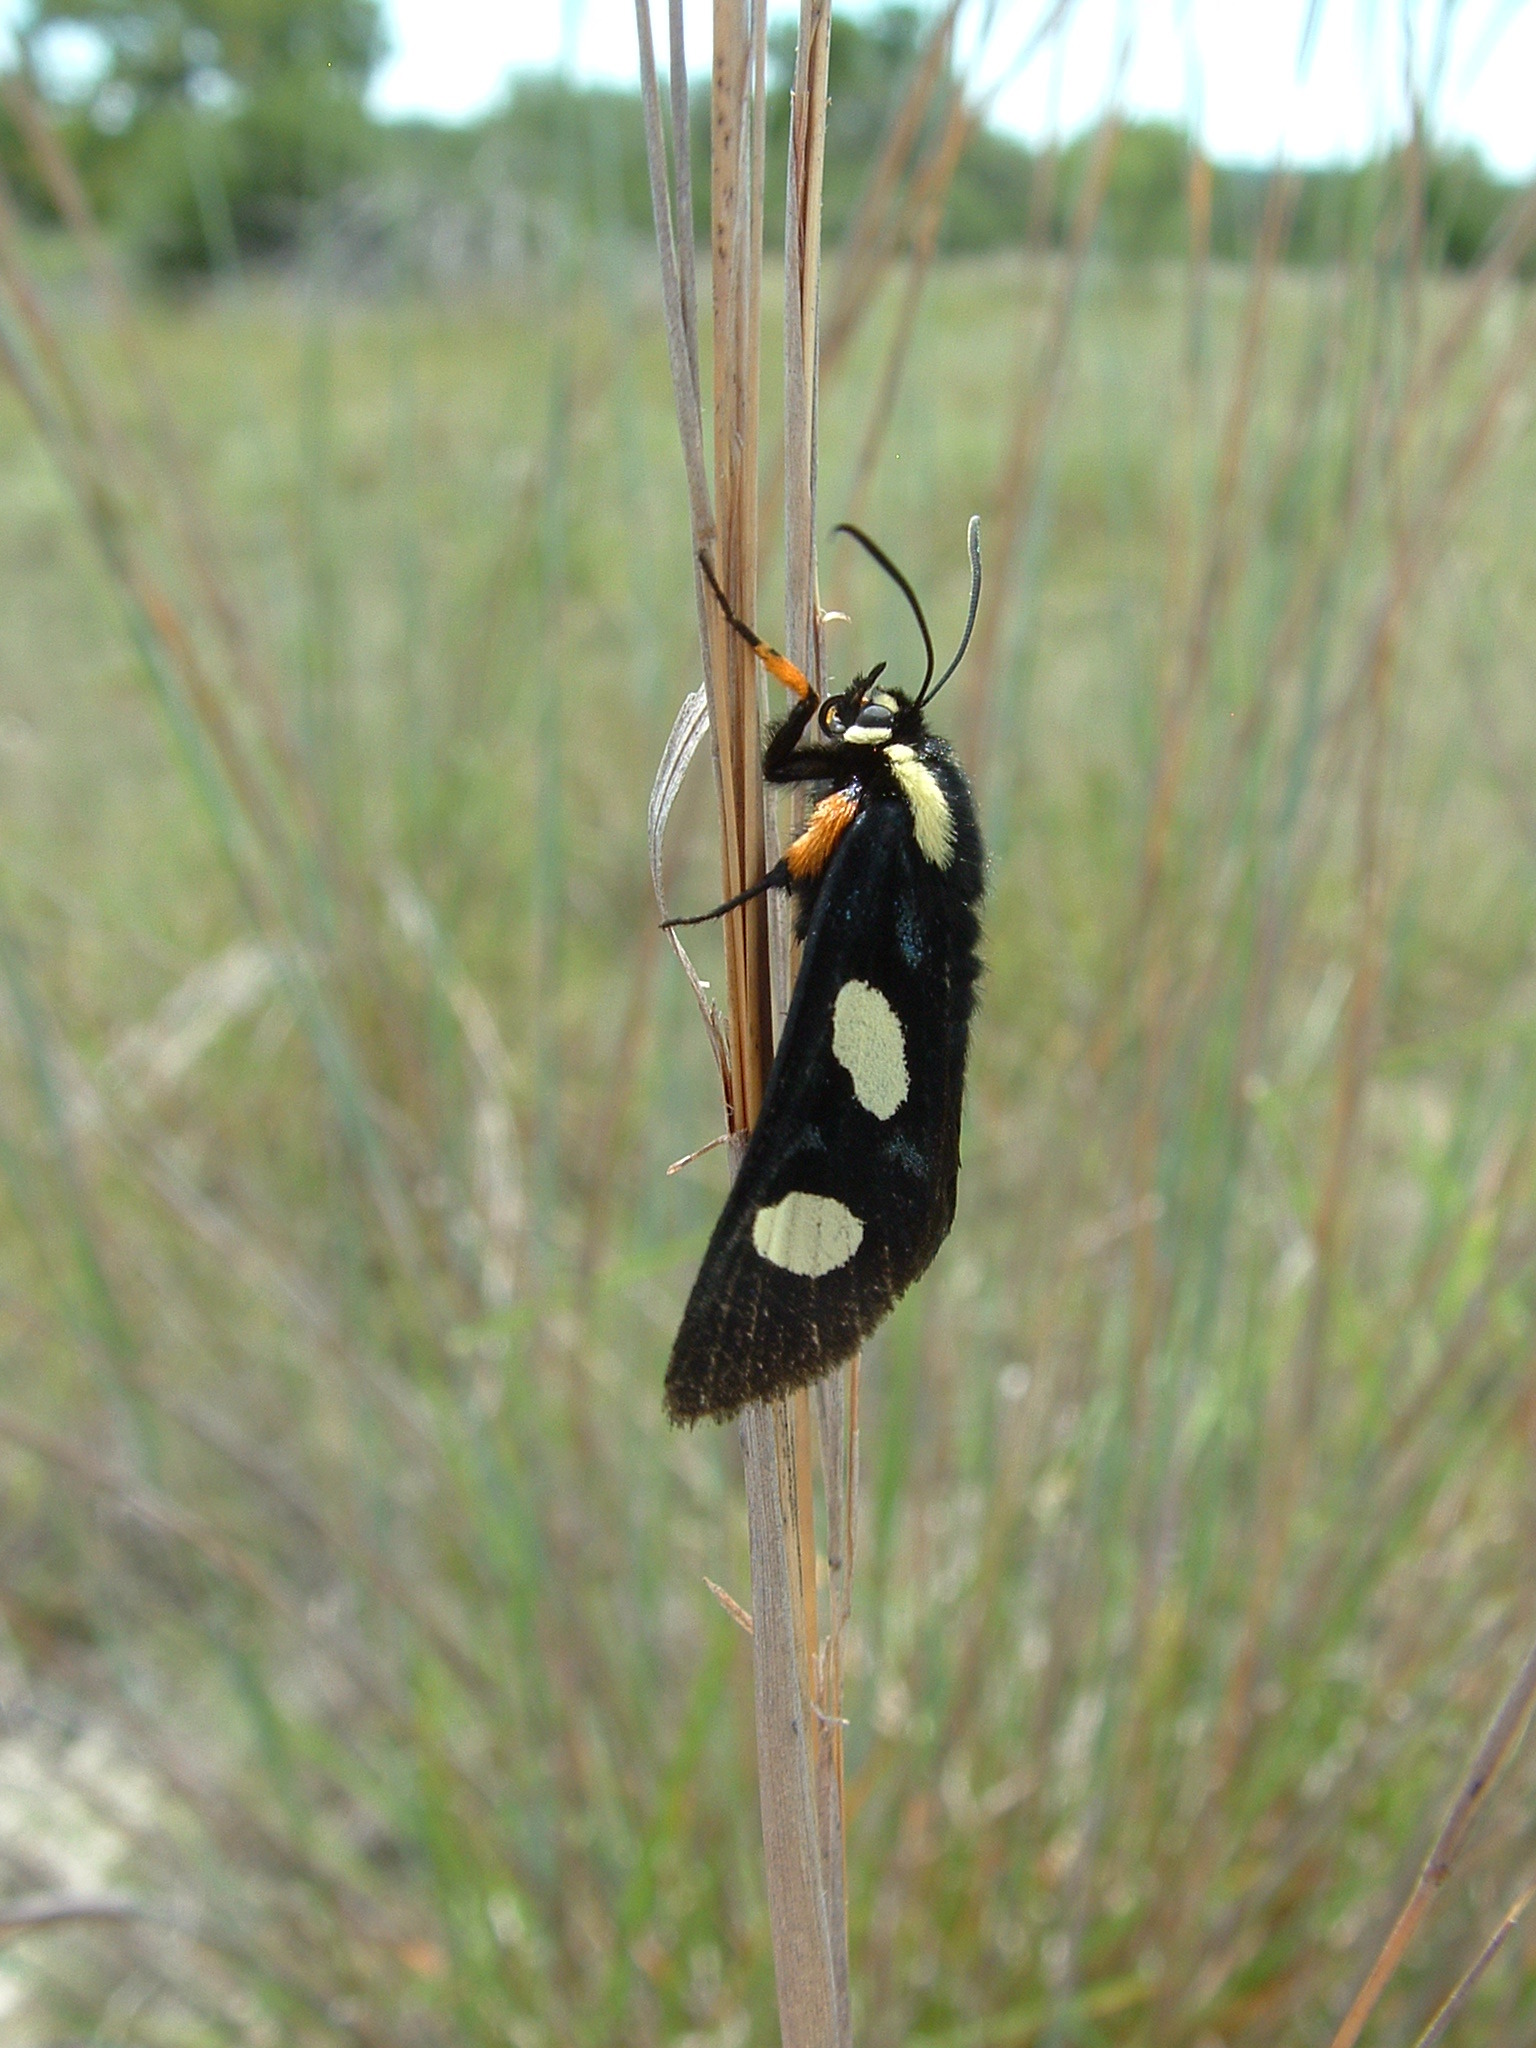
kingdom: Animalia
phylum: Arthropoda
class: Insecta
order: Lepidoptera
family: Noctuidae
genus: Alypia
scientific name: Alypia octomaculata
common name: Eight-spotted forester
